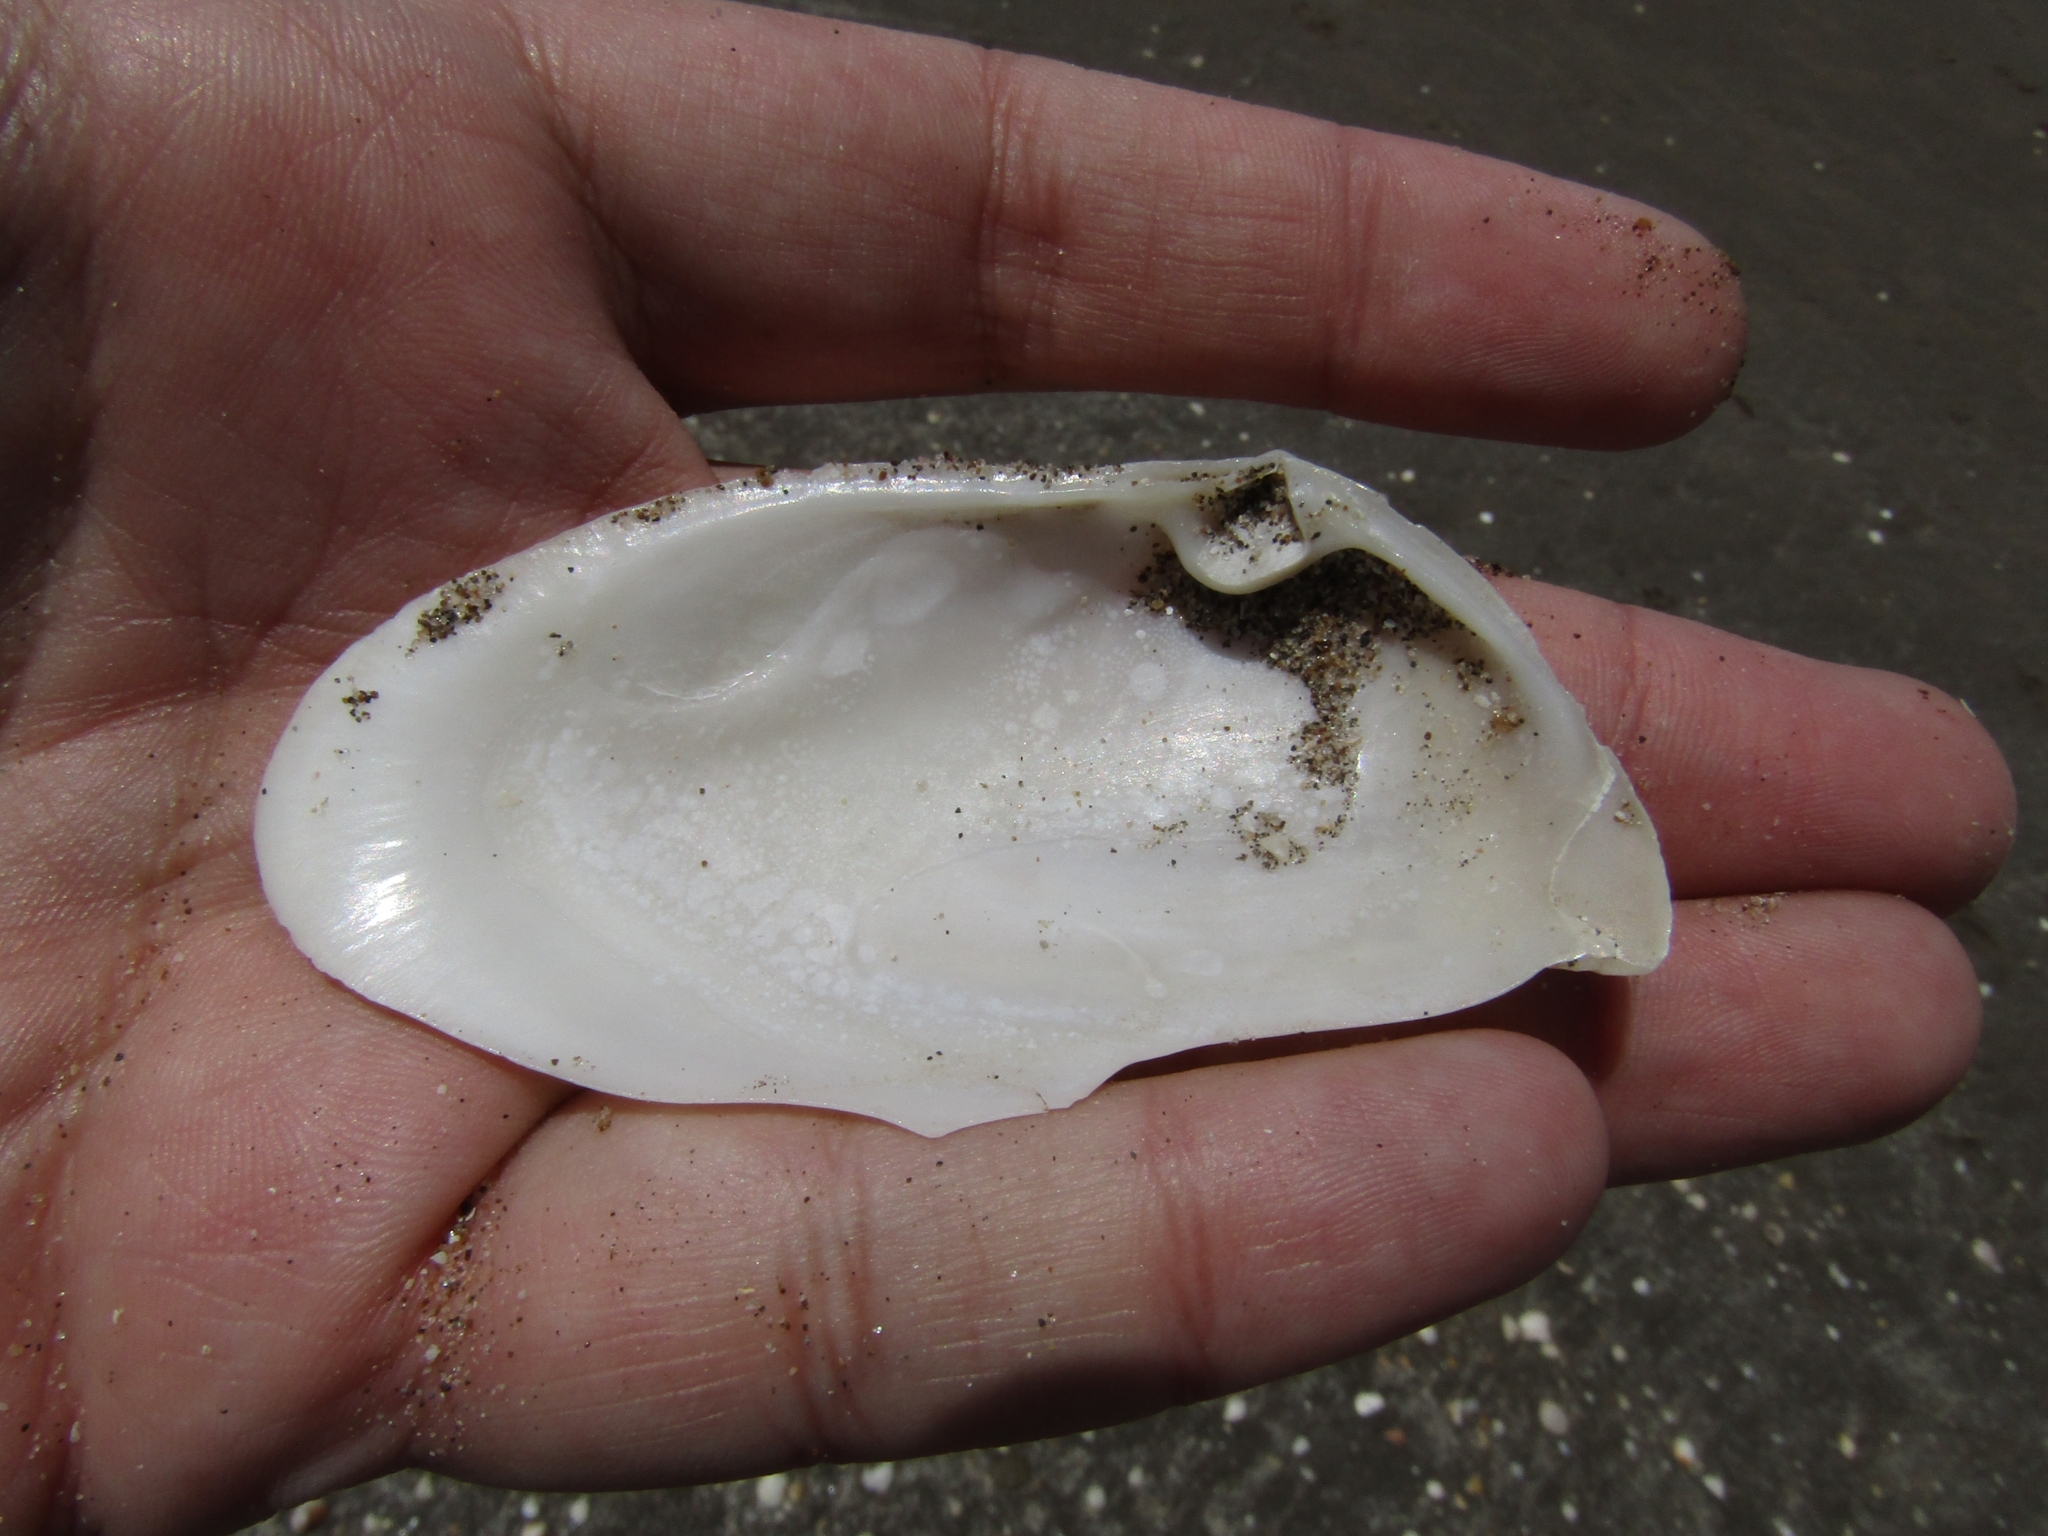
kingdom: Animalia
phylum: Mollusca
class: Bivalvia
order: Venerida
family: Mesodesmatidae
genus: Amarilladesma
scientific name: Amarilladesma mactroides
